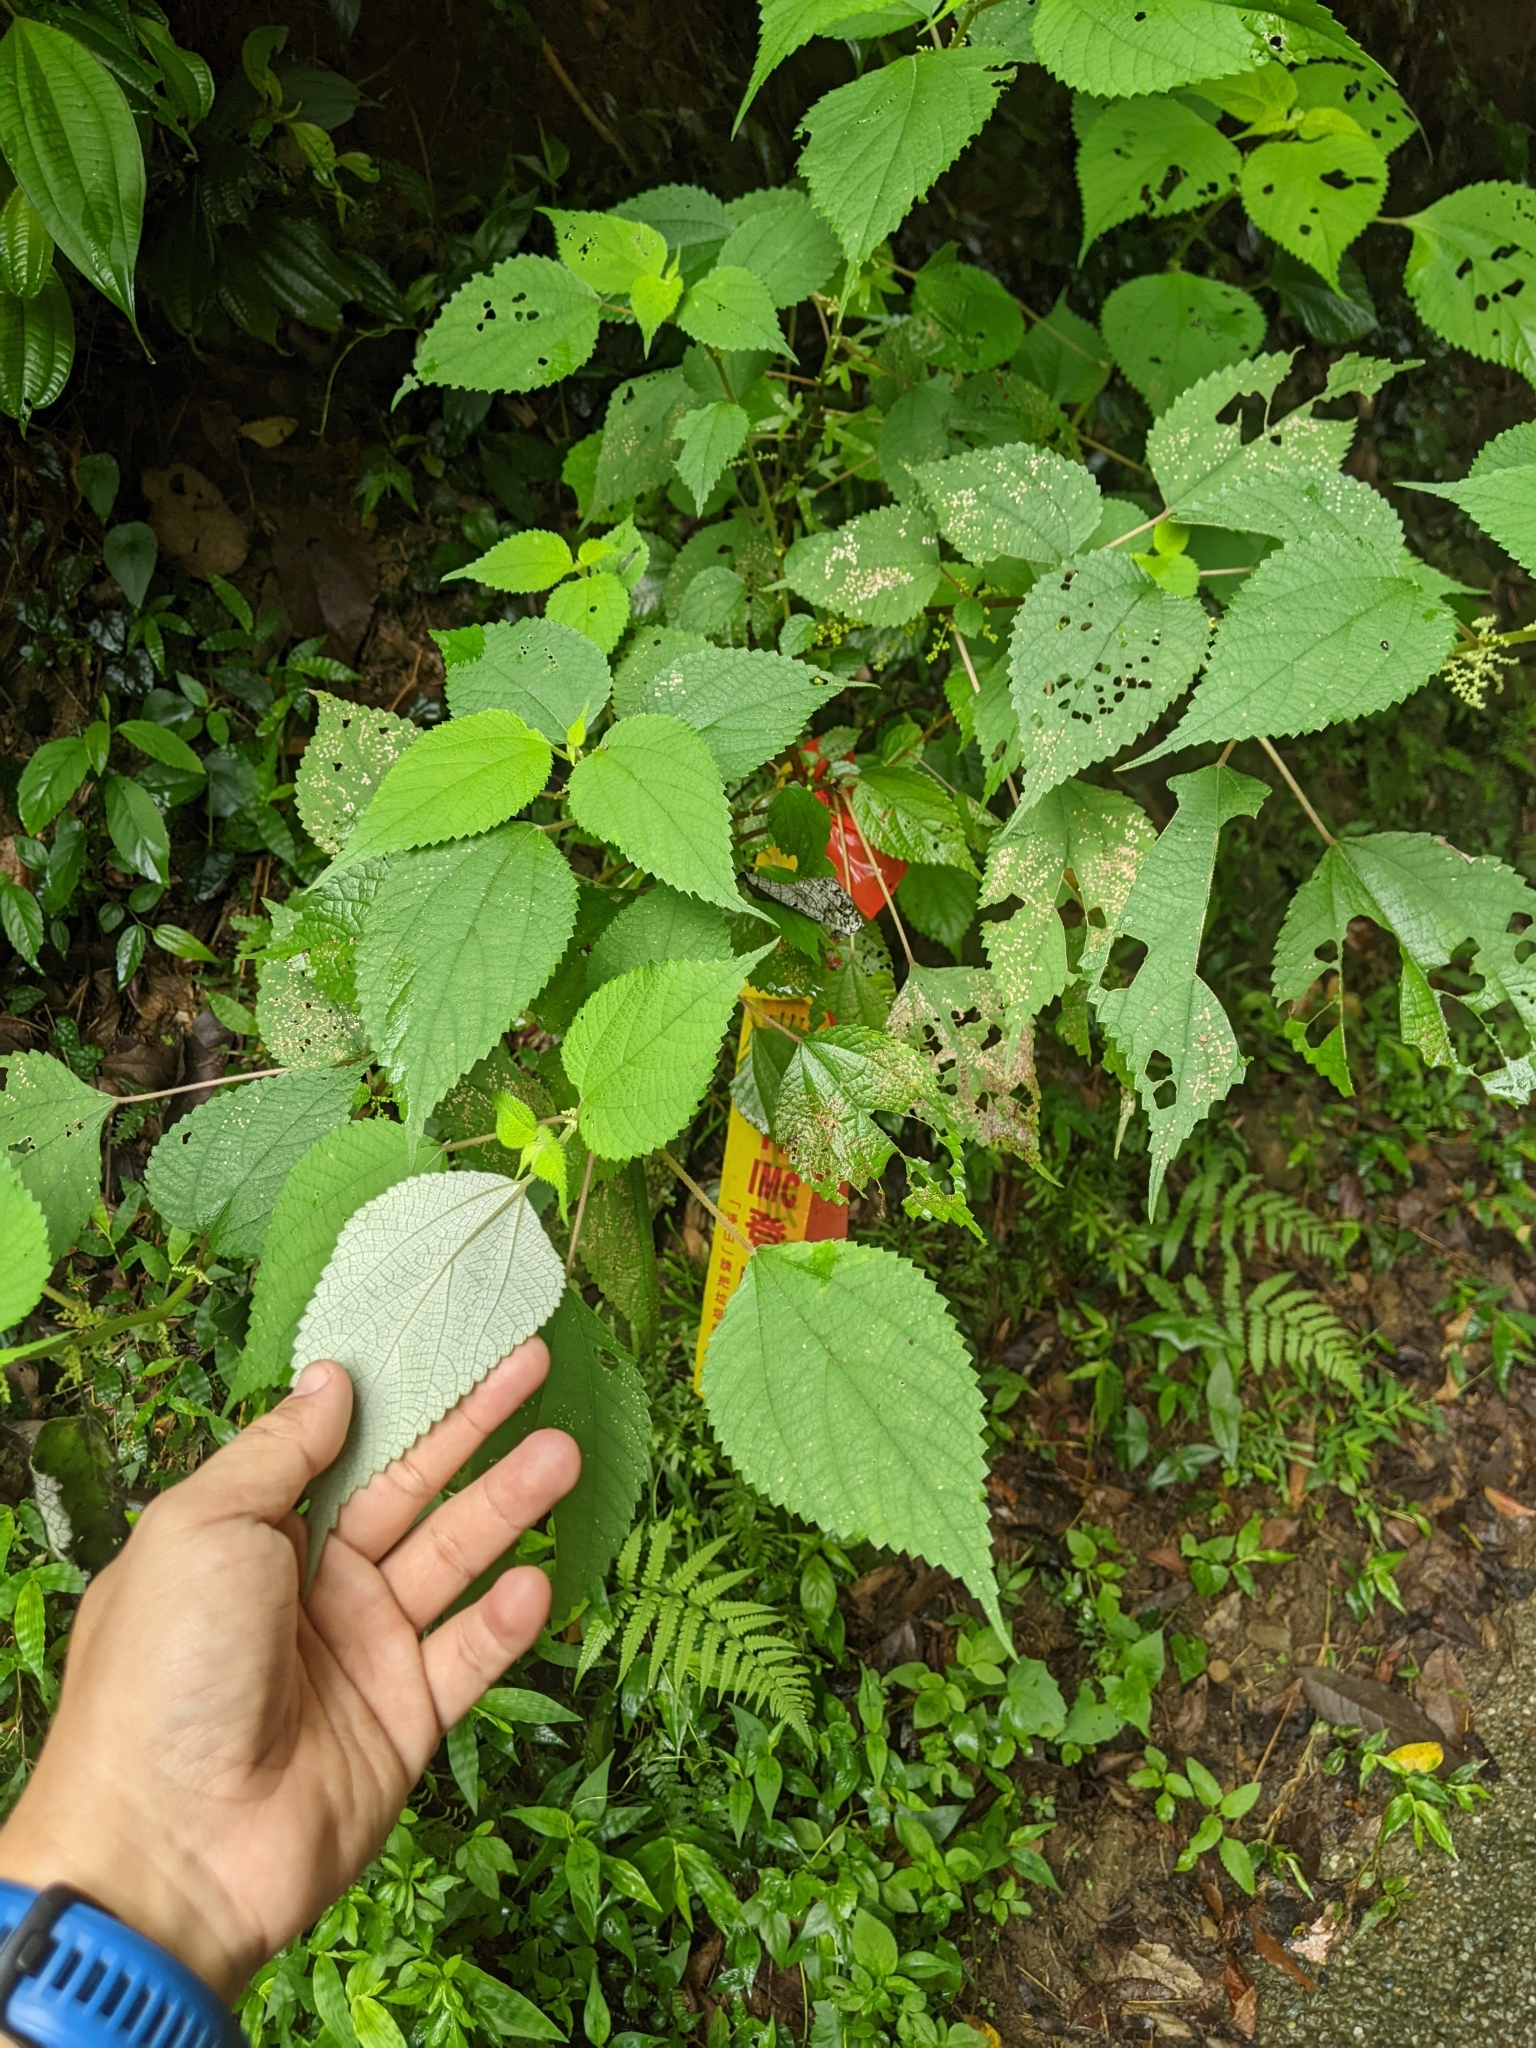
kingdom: Plantae
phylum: Tracheophyta
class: Magnoliopsida
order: Rosales
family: Urticaceae
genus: Boehmeria
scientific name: Boehmeria nivea
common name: Ramie chinese grass
